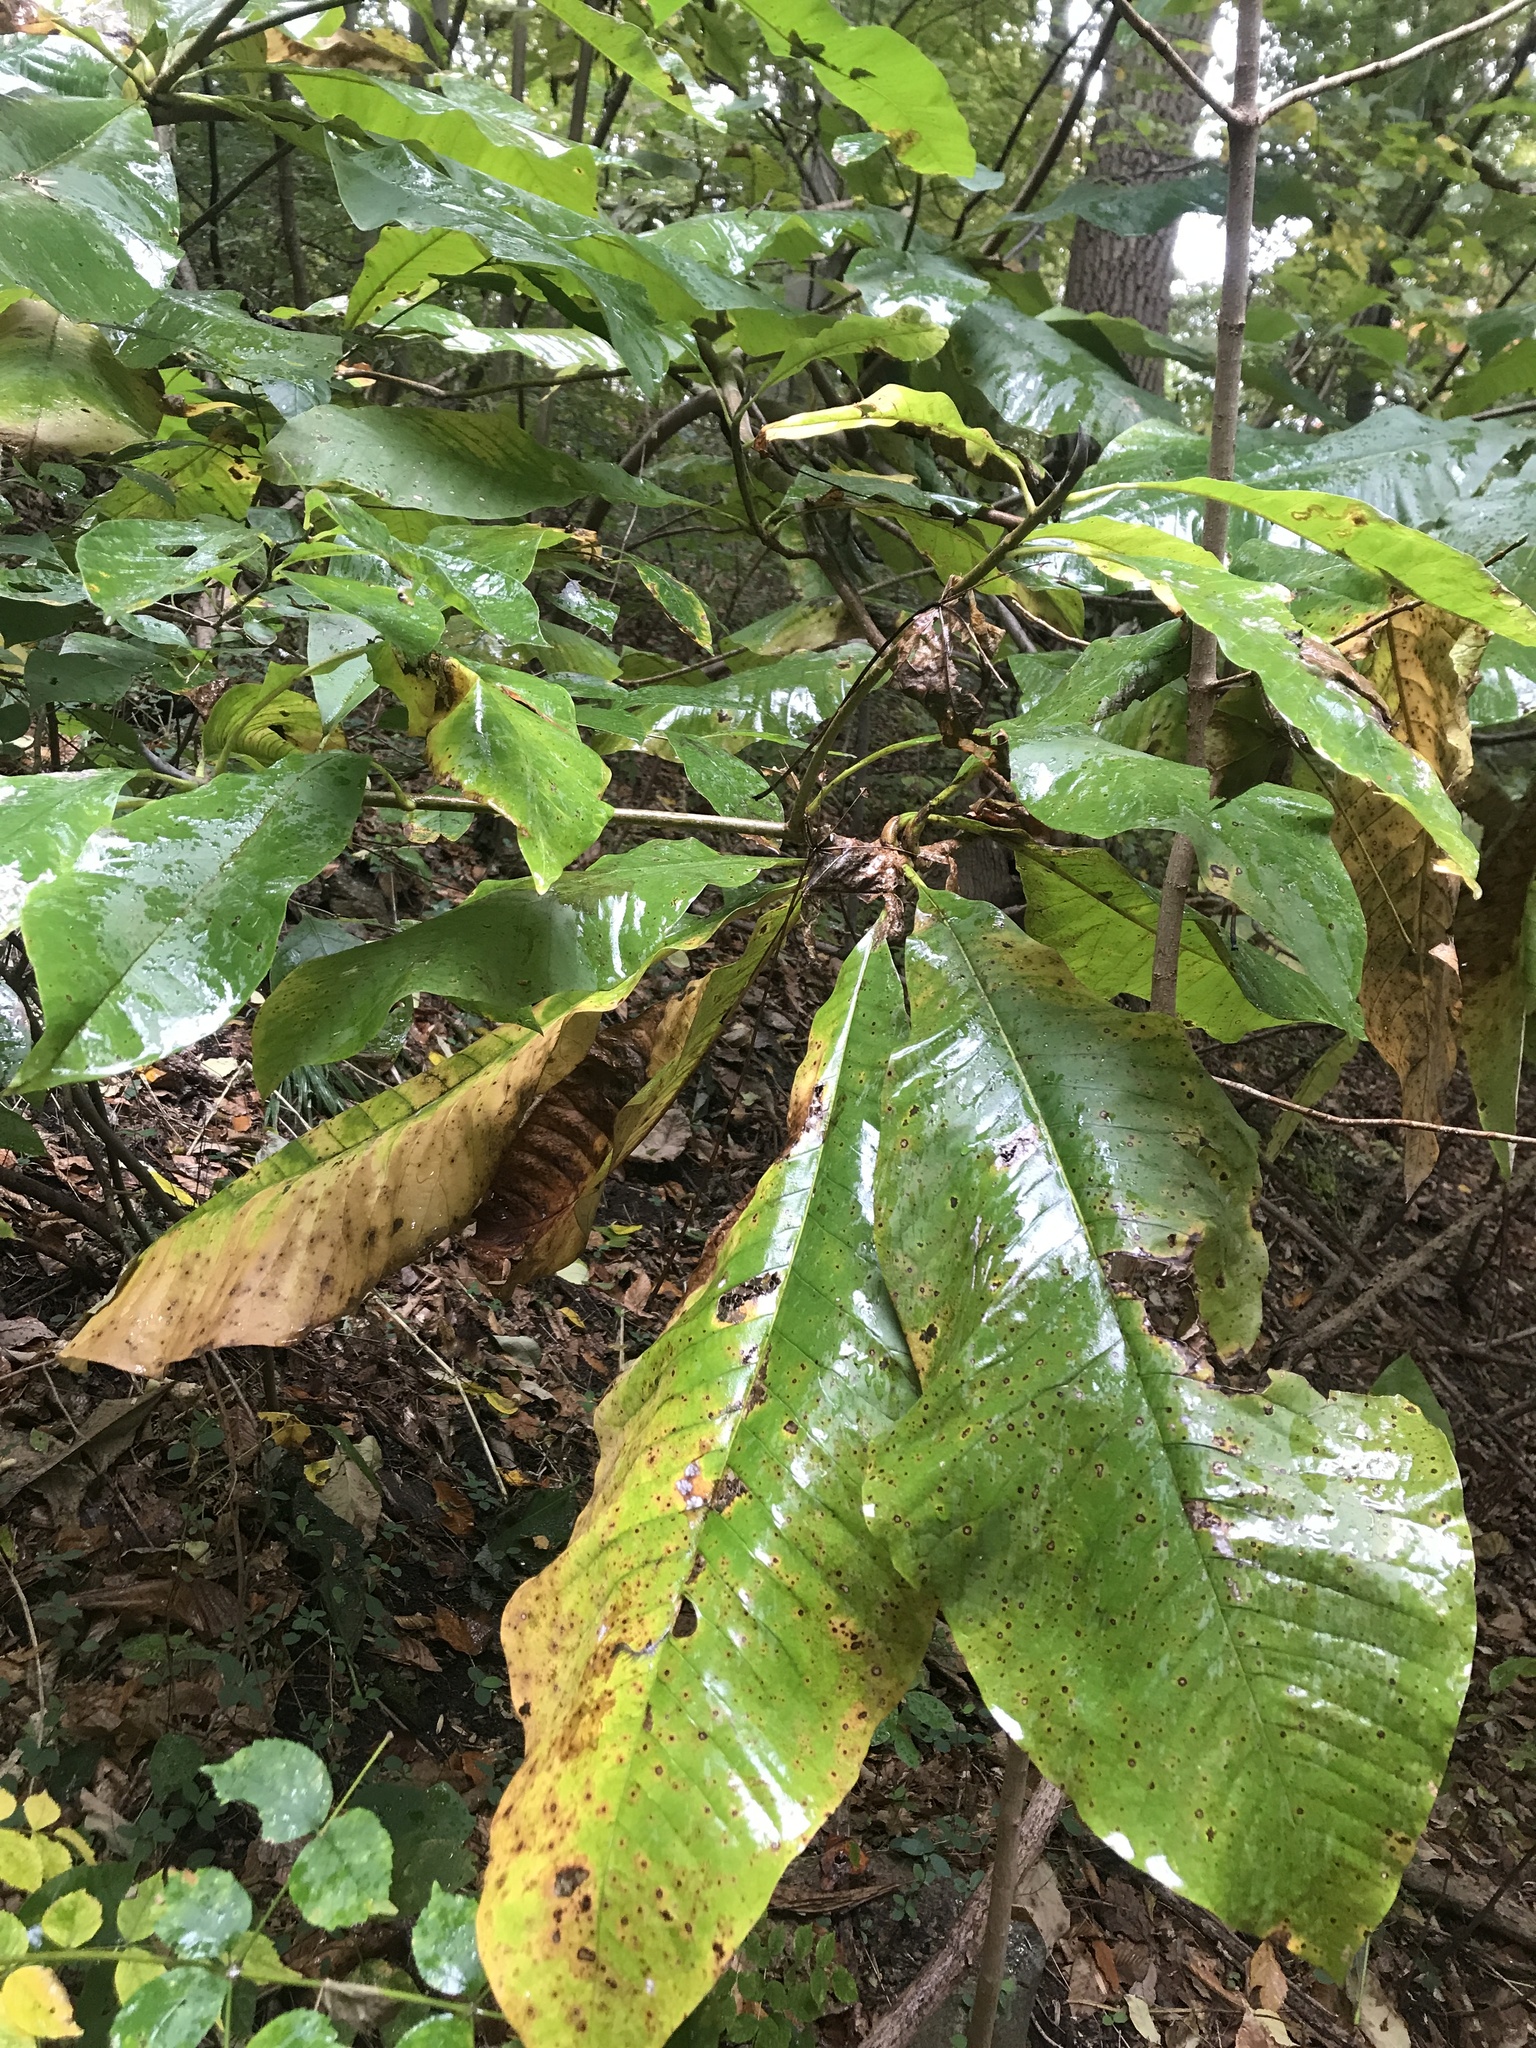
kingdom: Plantae
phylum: Tracheophyta
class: Magnoliopsida
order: Magnoliales
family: Magnoliaceae
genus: Magnolia
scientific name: Magnolia tripetala
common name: Umbrella magnolia
